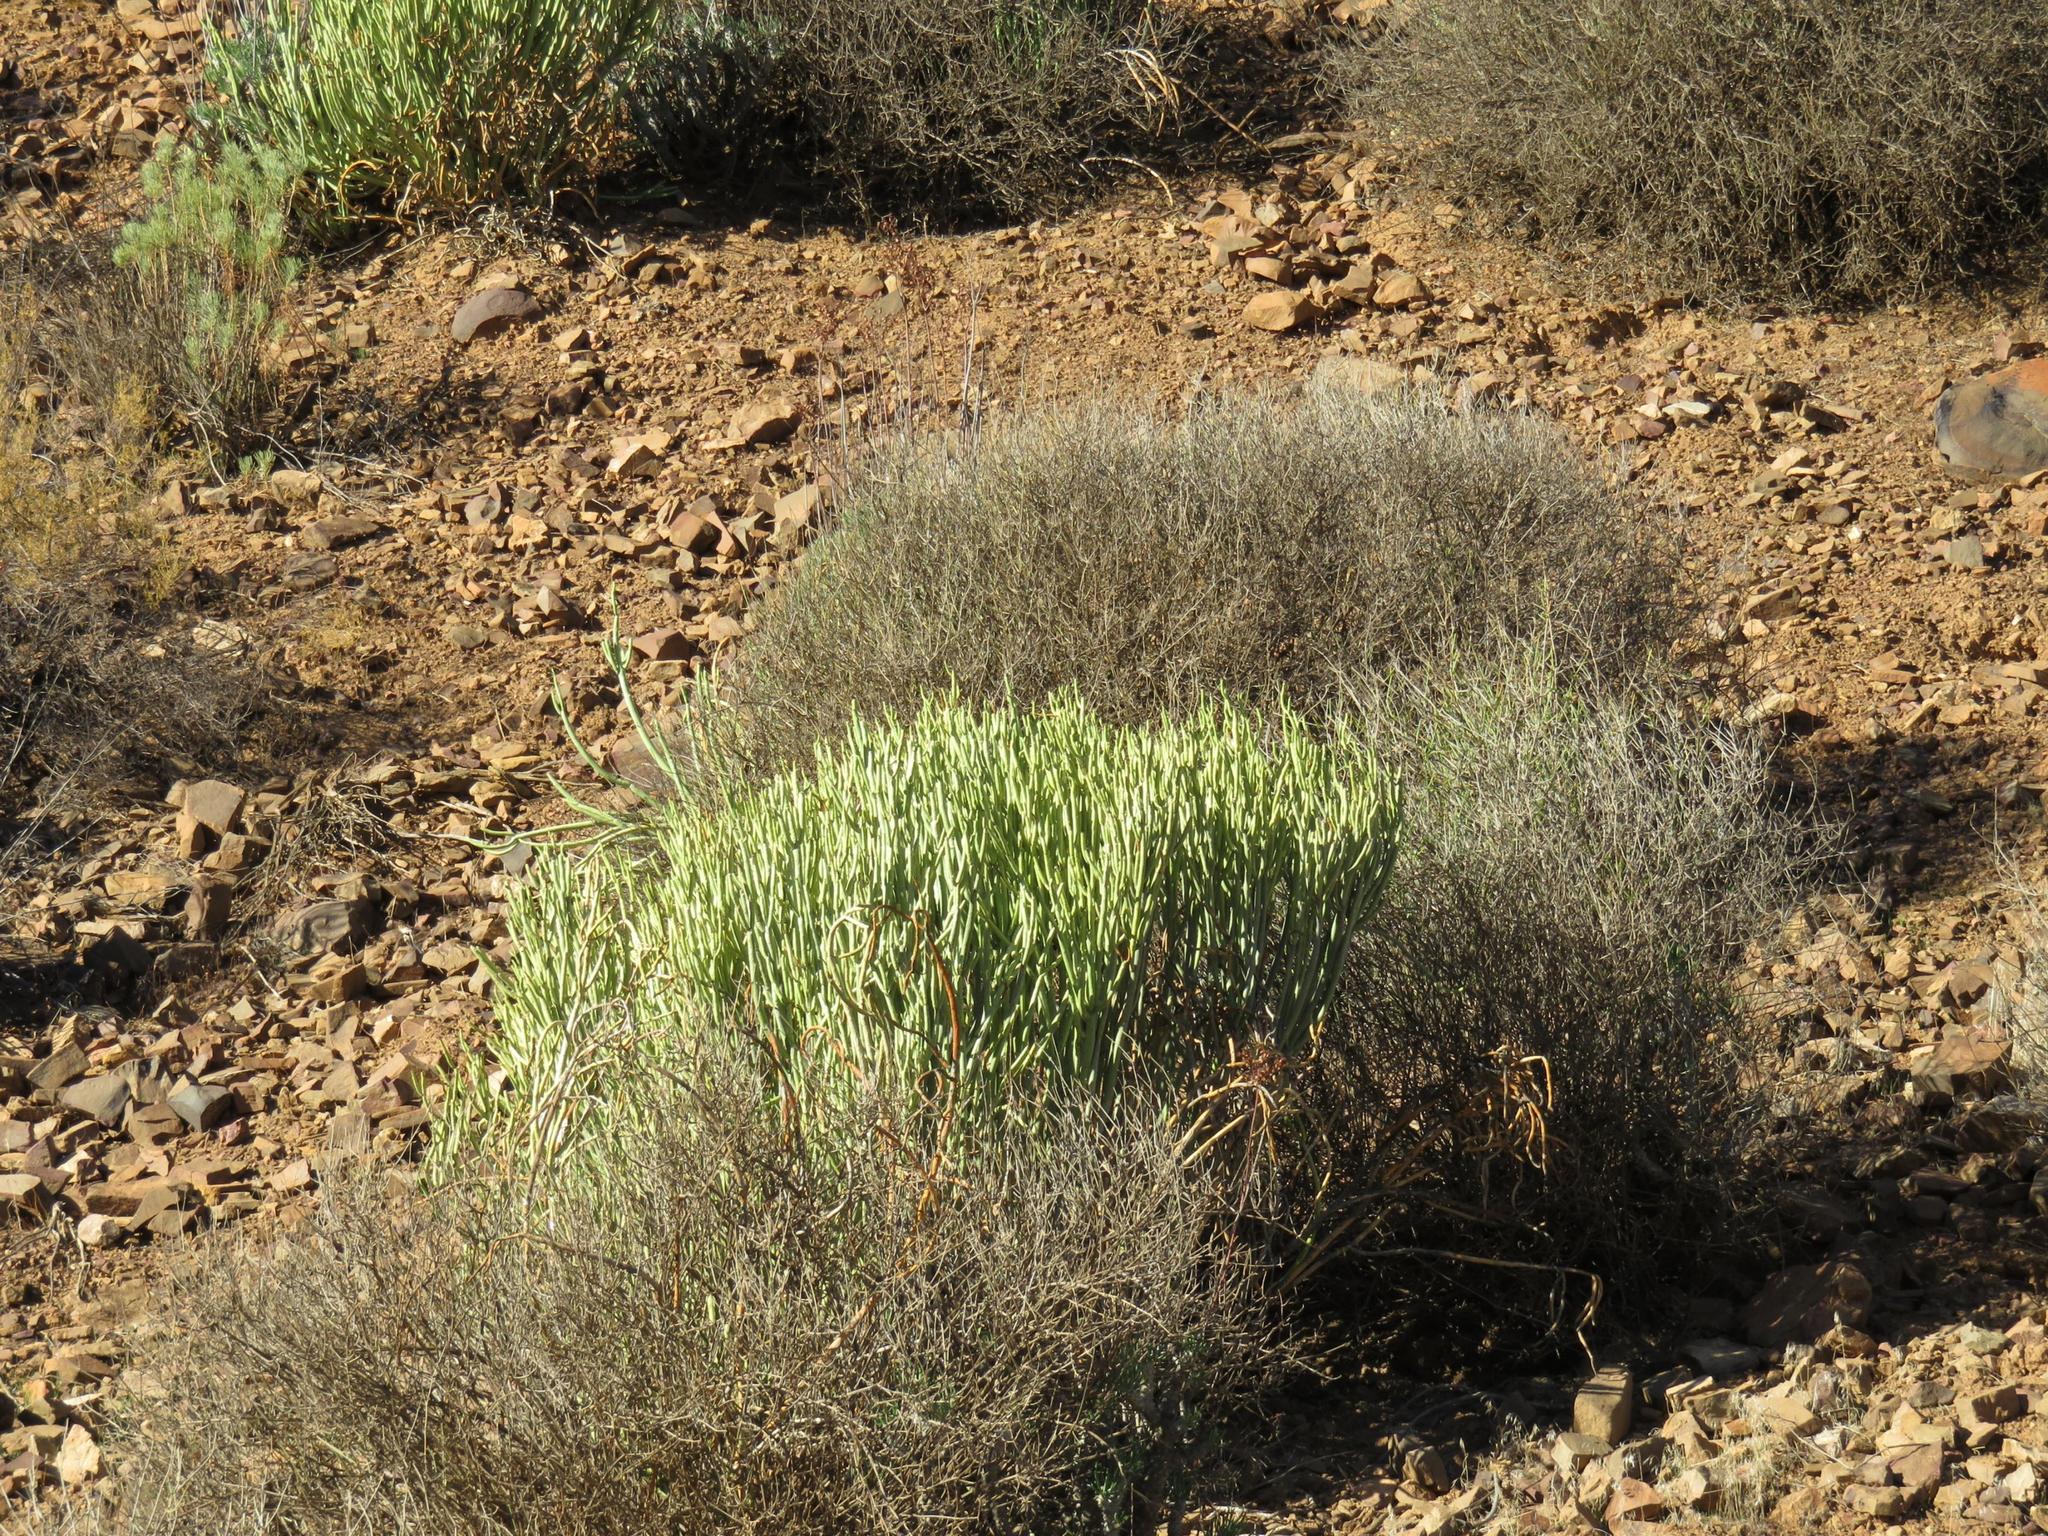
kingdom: Plantae
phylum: Tracheophyta
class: Magnoliopsida
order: Malpighiales
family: Euphorbiaceae
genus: Euphorbia
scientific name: Euphorbia mauritanica
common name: Jackal's-food
